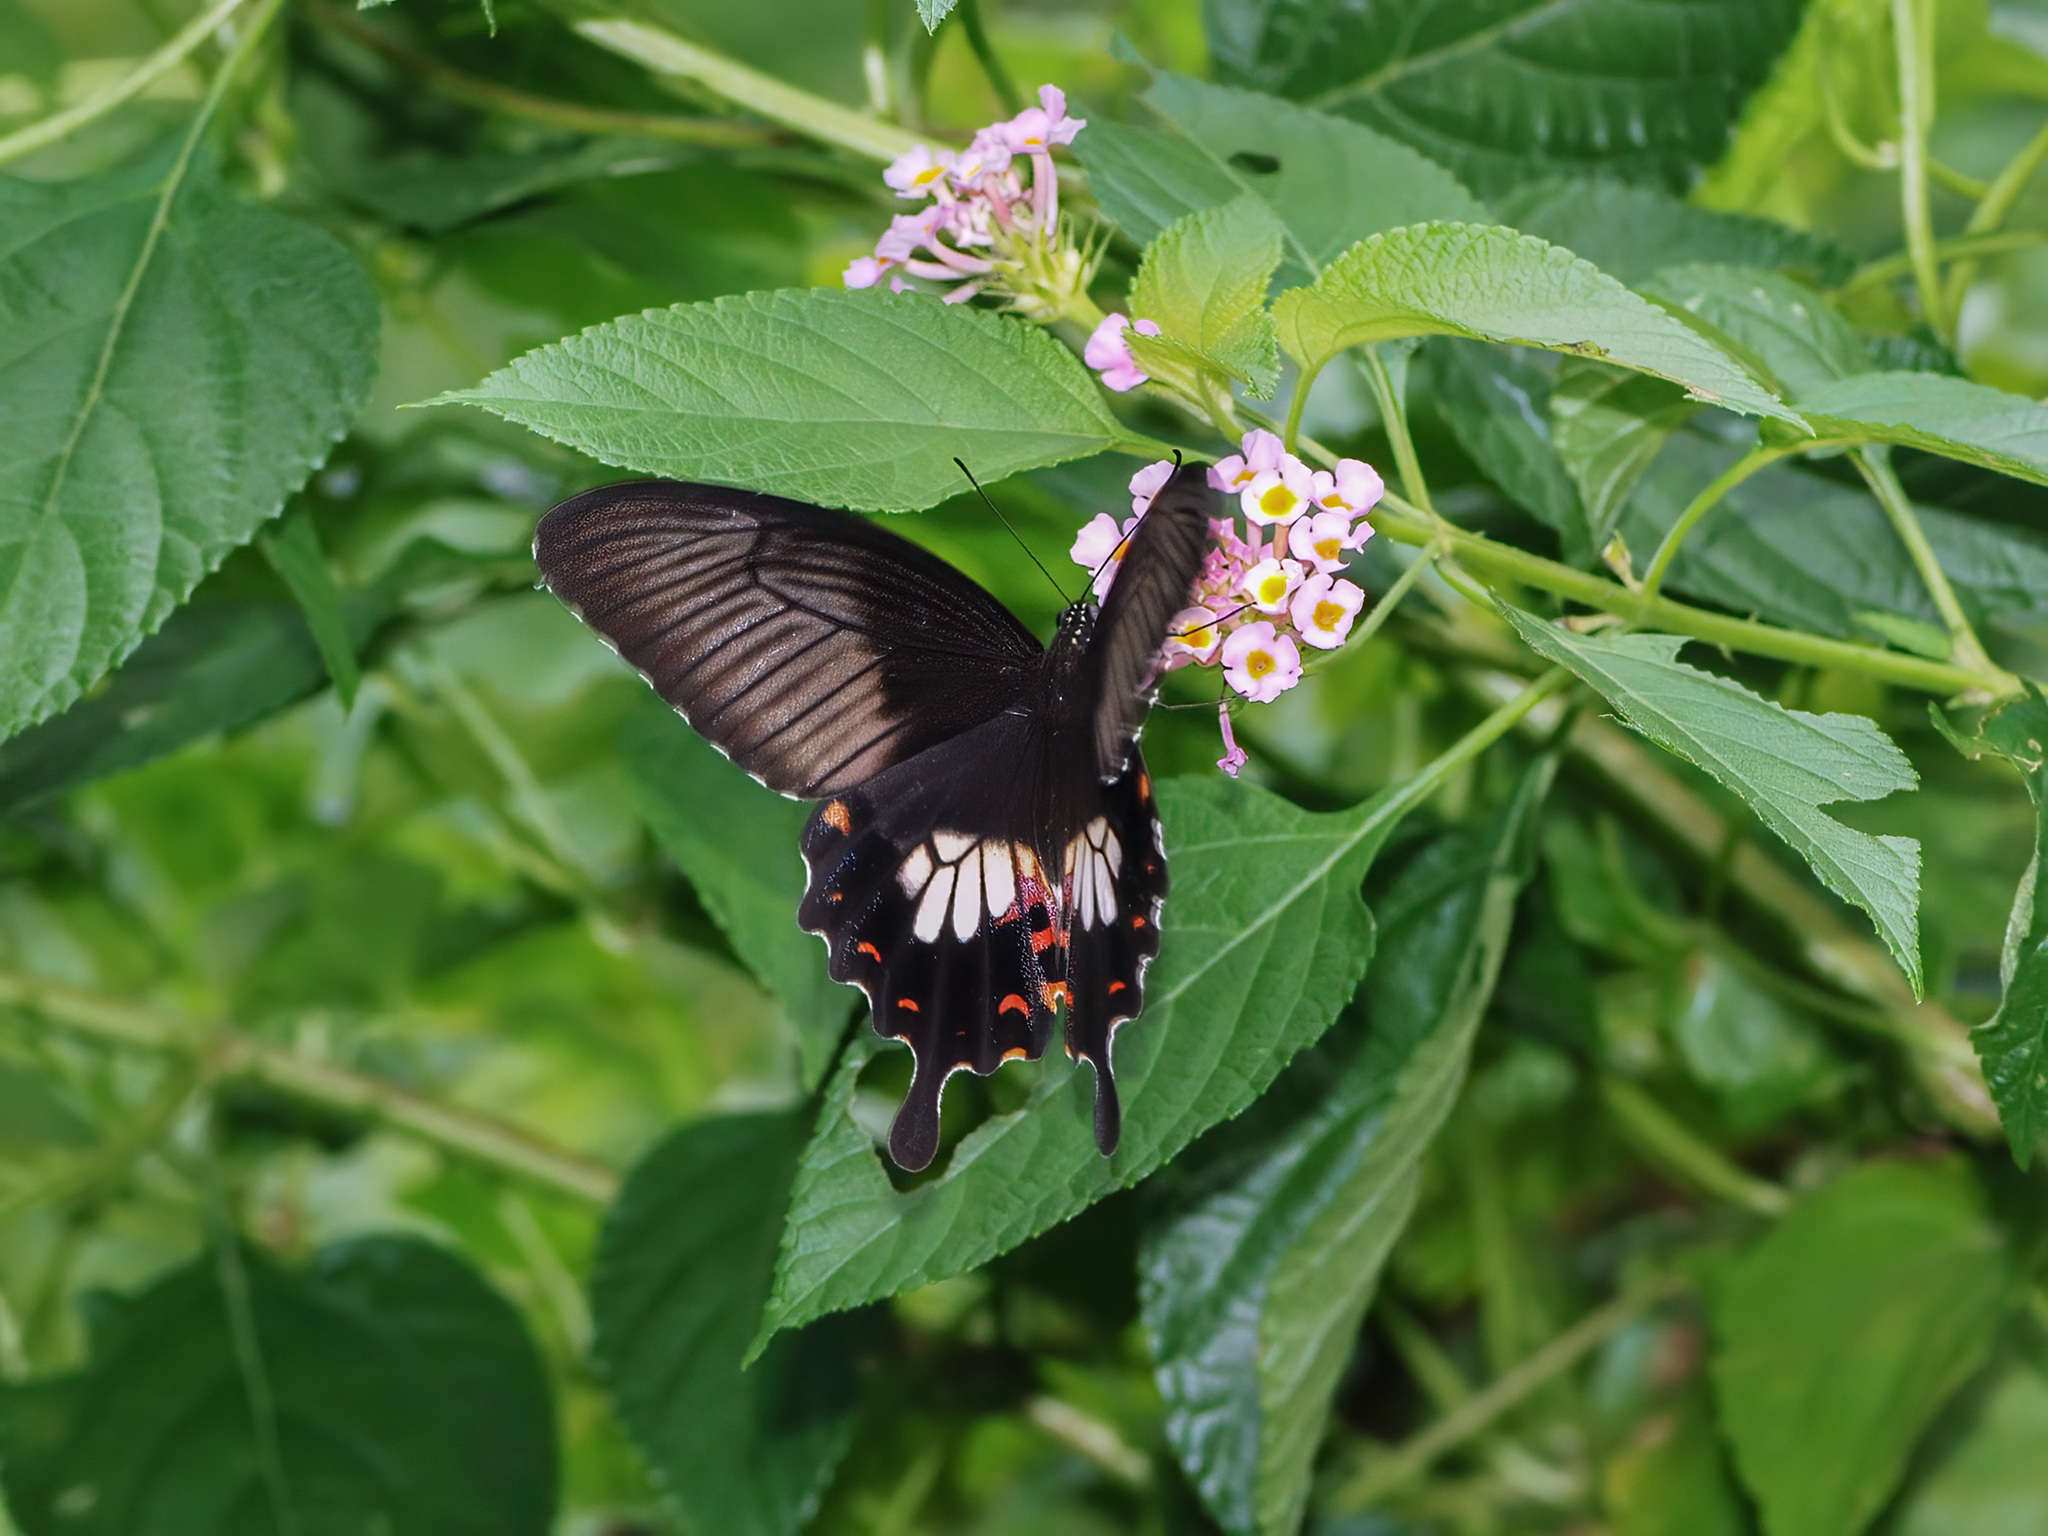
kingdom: Animalia
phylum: Arthropoda
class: Insecta
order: Lepidoptera
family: Papilionidae
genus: Papilio
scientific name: Papilio polytes
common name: Common mormon
